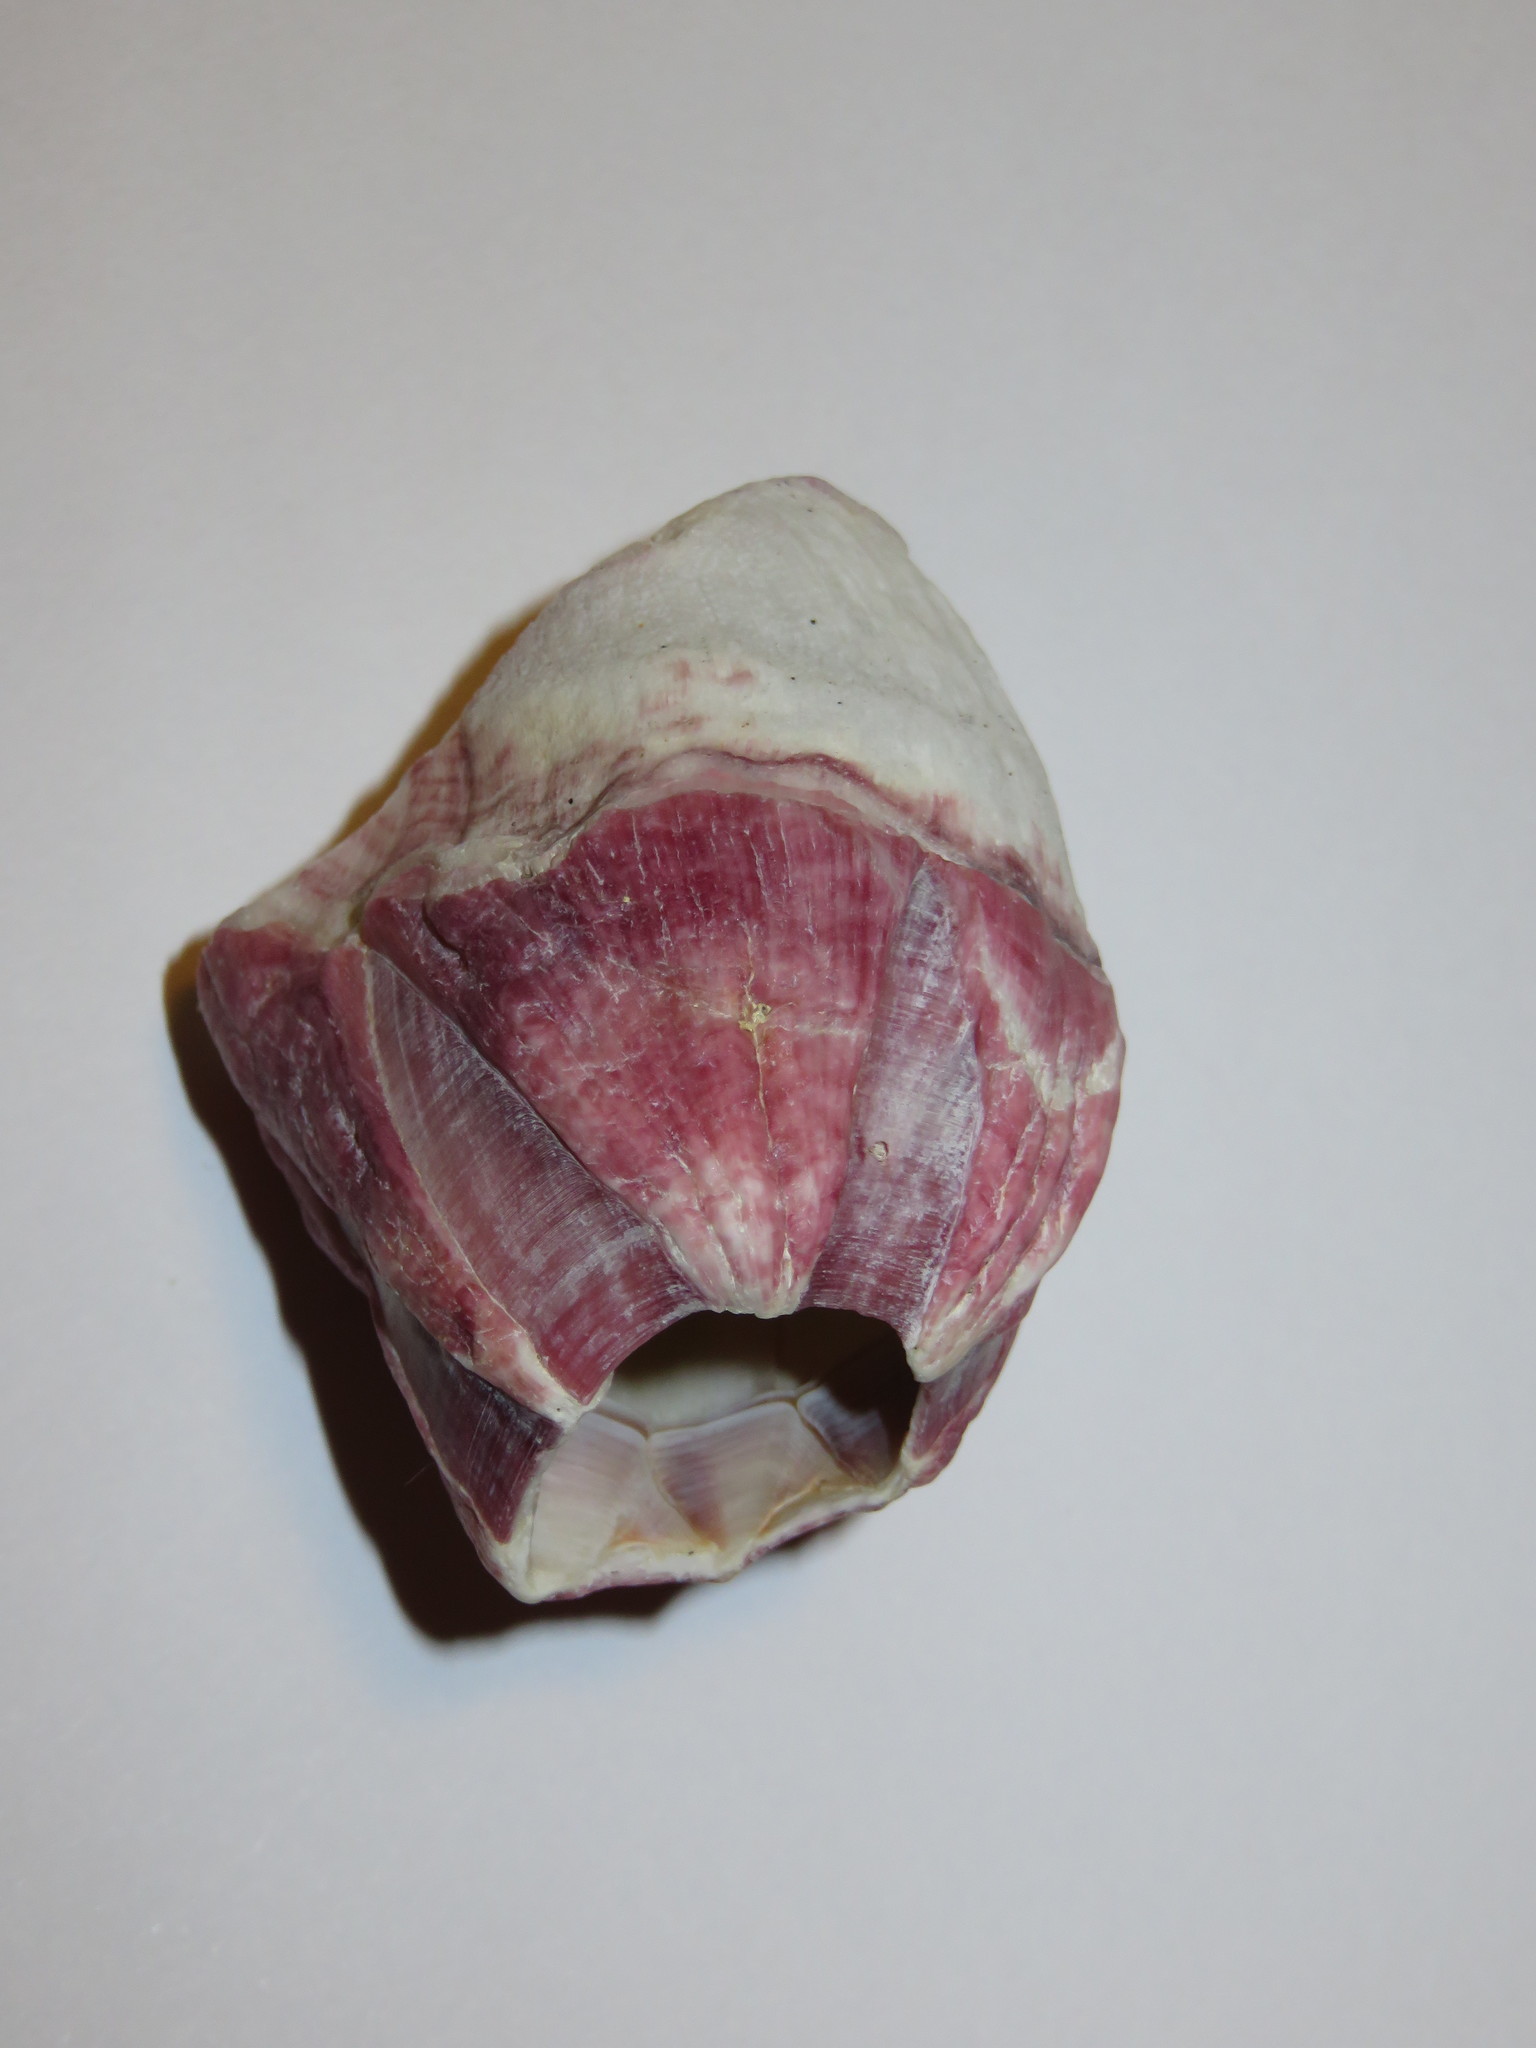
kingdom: Animalia
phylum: Arthropoda
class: Maxillopoda
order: Sessilia
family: Balanidae
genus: Megabalanus
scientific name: Megabalanus tintinnabulum
